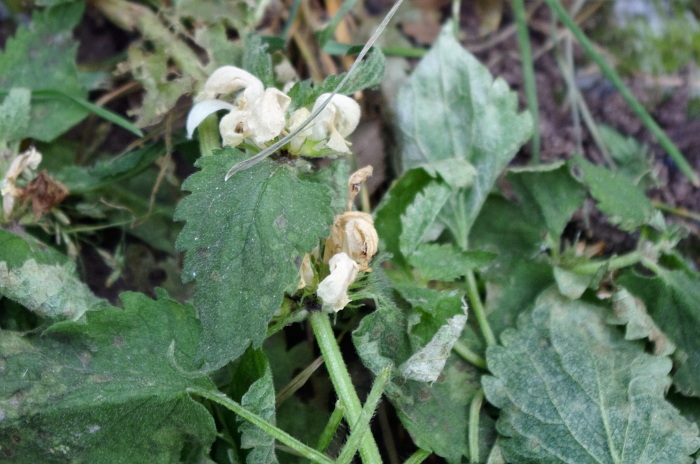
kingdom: Plantae
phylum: Tracheophyta
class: Magnoliopsida
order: Lamiales
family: Lamiaceae
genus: Lamium
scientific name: Lamium album
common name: White dead-nettle
